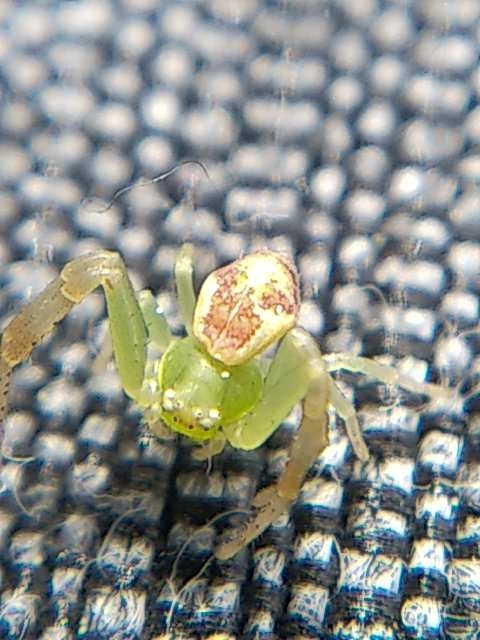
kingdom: Animalia
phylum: Arthropoda
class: Arachnida
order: Araneae
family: Thomisidae
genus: Ebrechtella
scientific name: Ebrechtella tricuspidata
